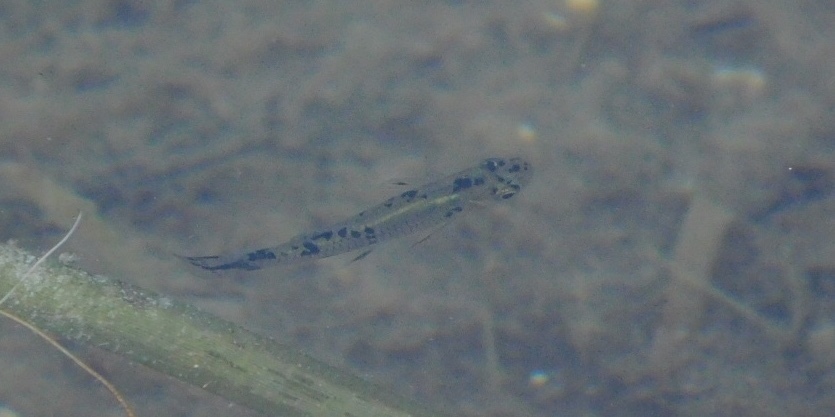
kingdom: Animalia
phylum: Chordata
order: Cyprinodontiformes
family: Poeciliidae
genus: Gambusia
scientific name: Gambusia holbrooki
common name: Eastern mosquitofish
